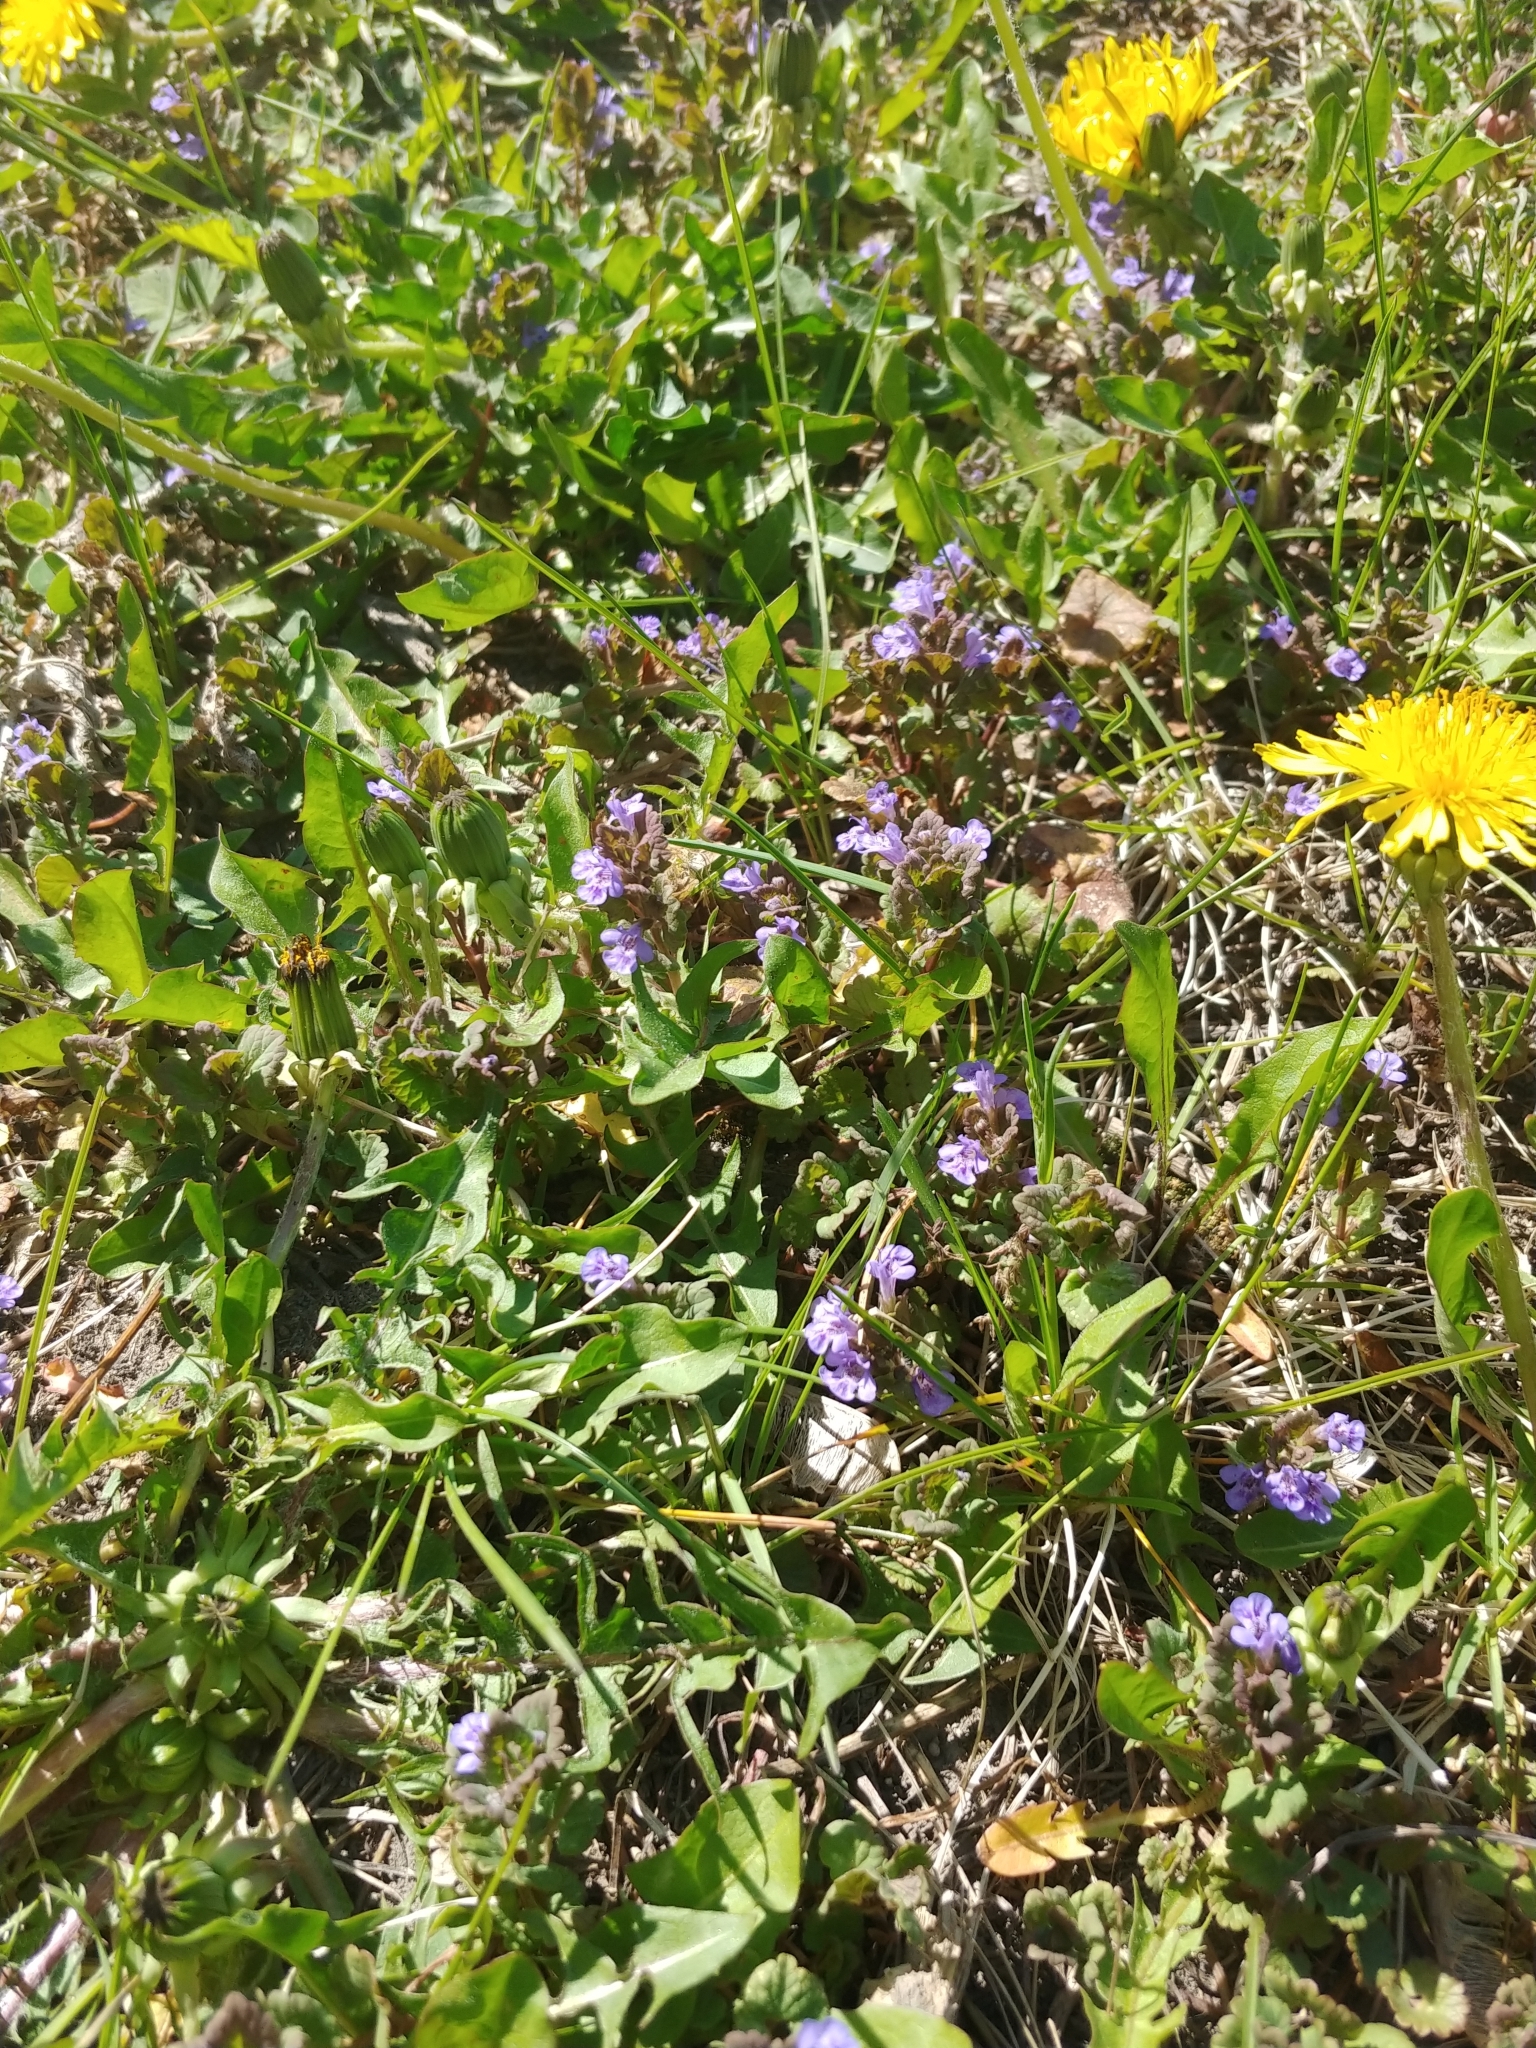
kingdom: Plantae
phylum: Tracheophyta
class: Magnoliopsida
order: Lamiales
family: Lamiaceae
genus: Glechoma
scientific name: Glechoma hederacea
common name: Ground ivy
